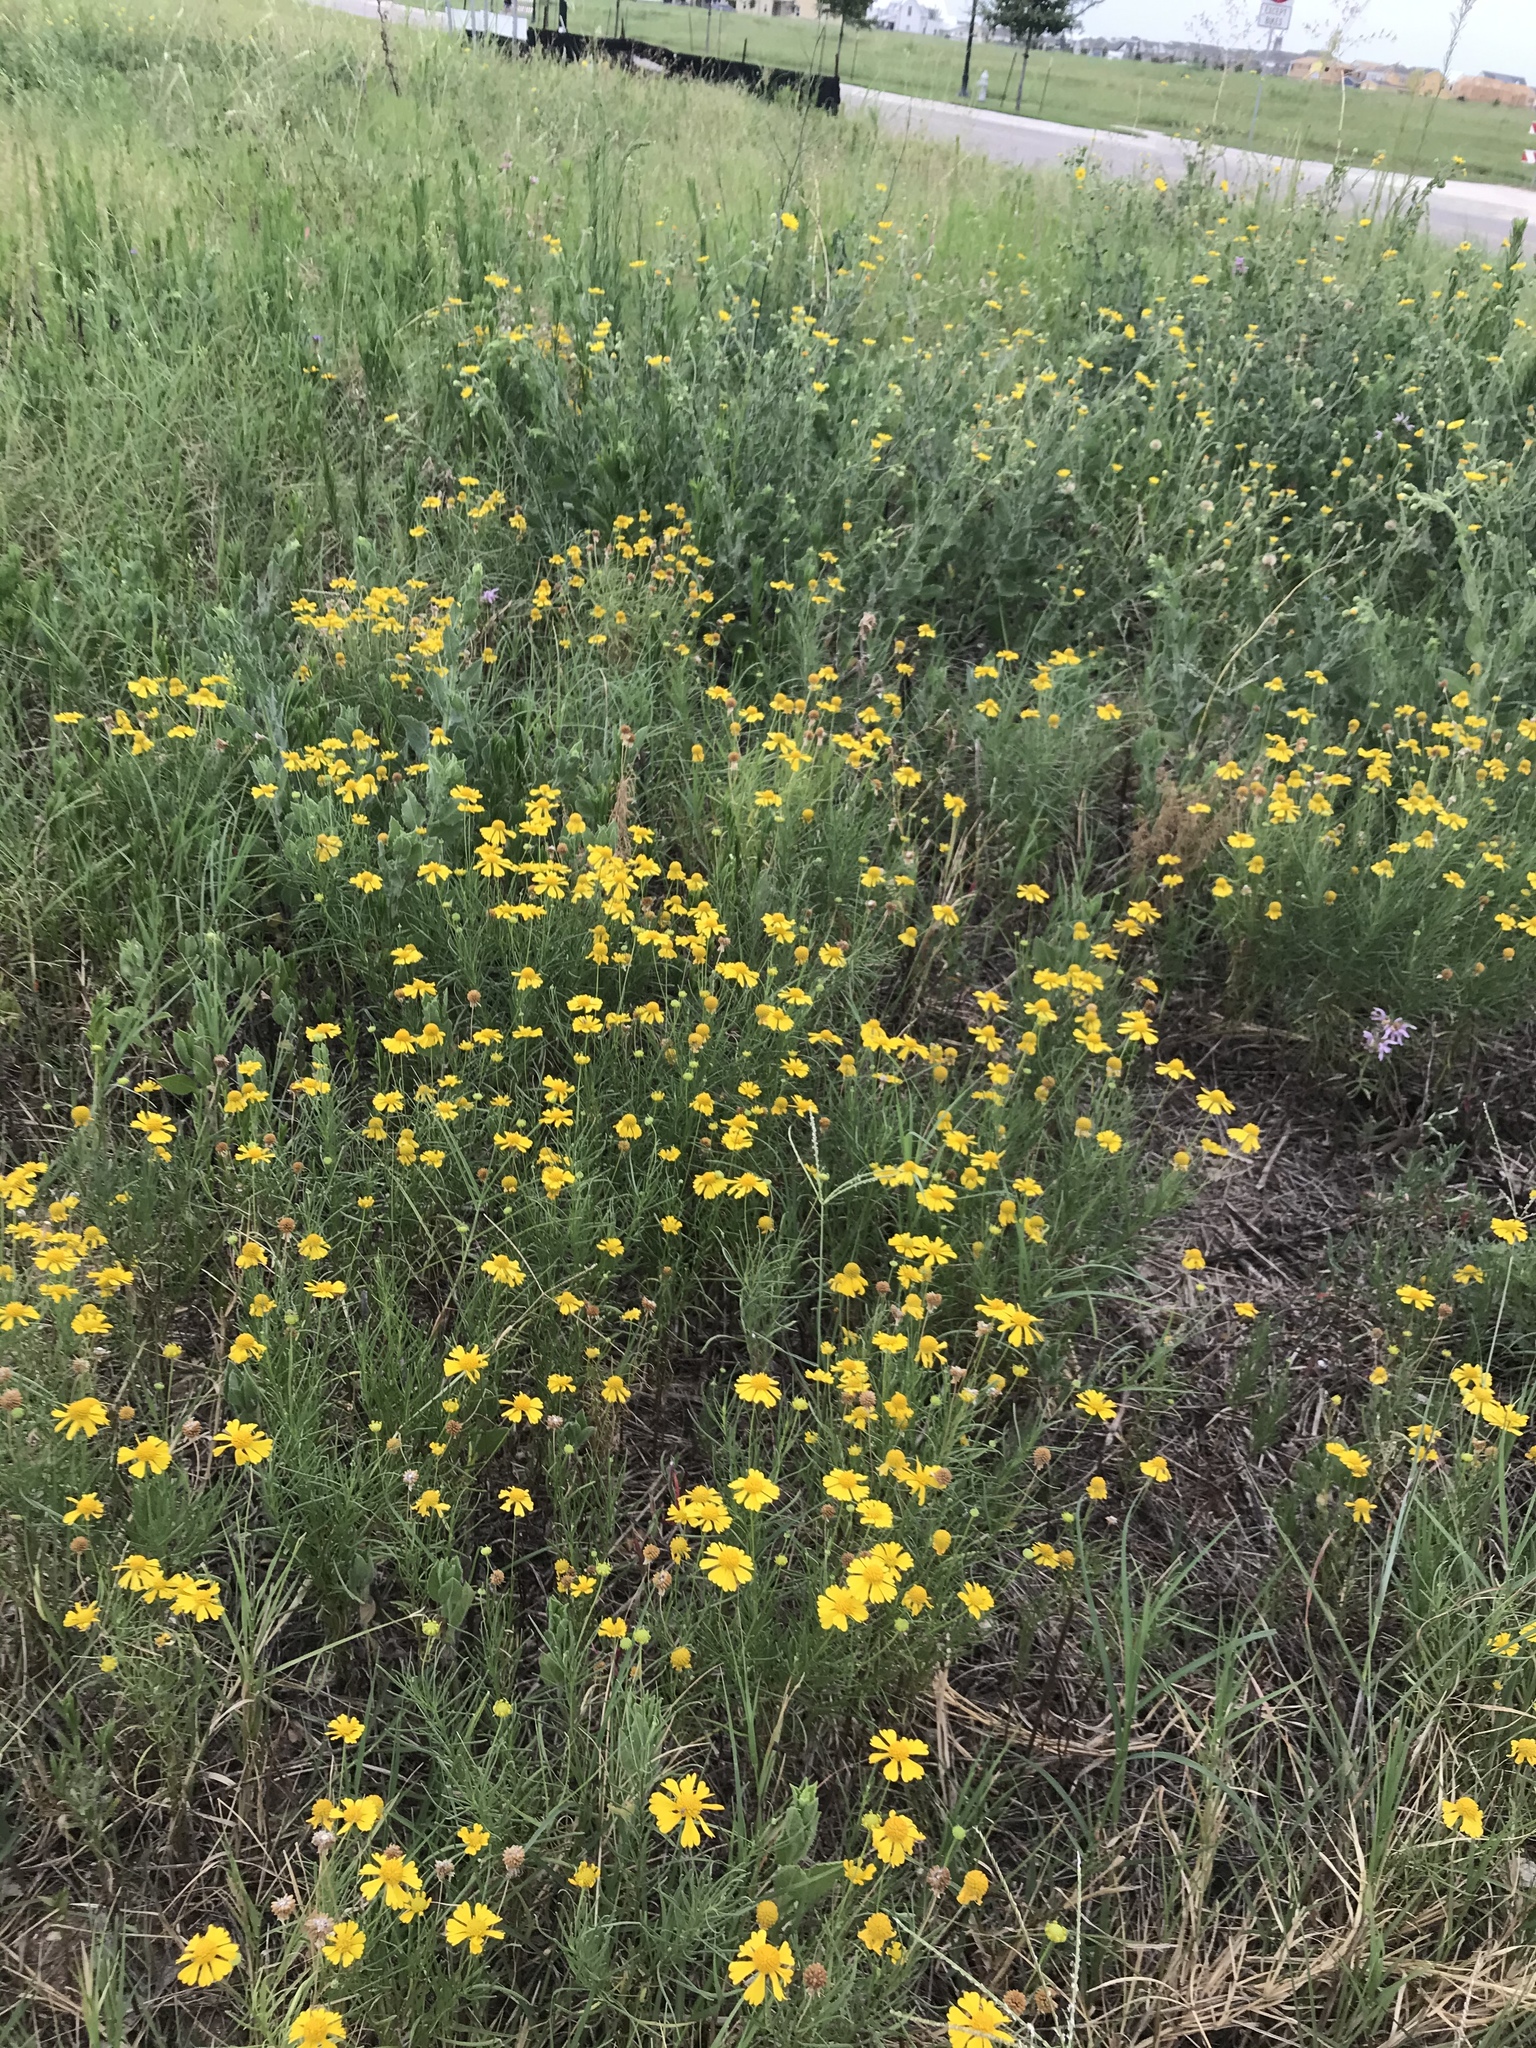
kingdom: Plantae
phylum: Tracheophyta
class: Magnoliopsida
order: Asterales
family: Asteraceae
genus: Helenium
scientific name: Helenium amarum
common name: Bitter sneezeweed
